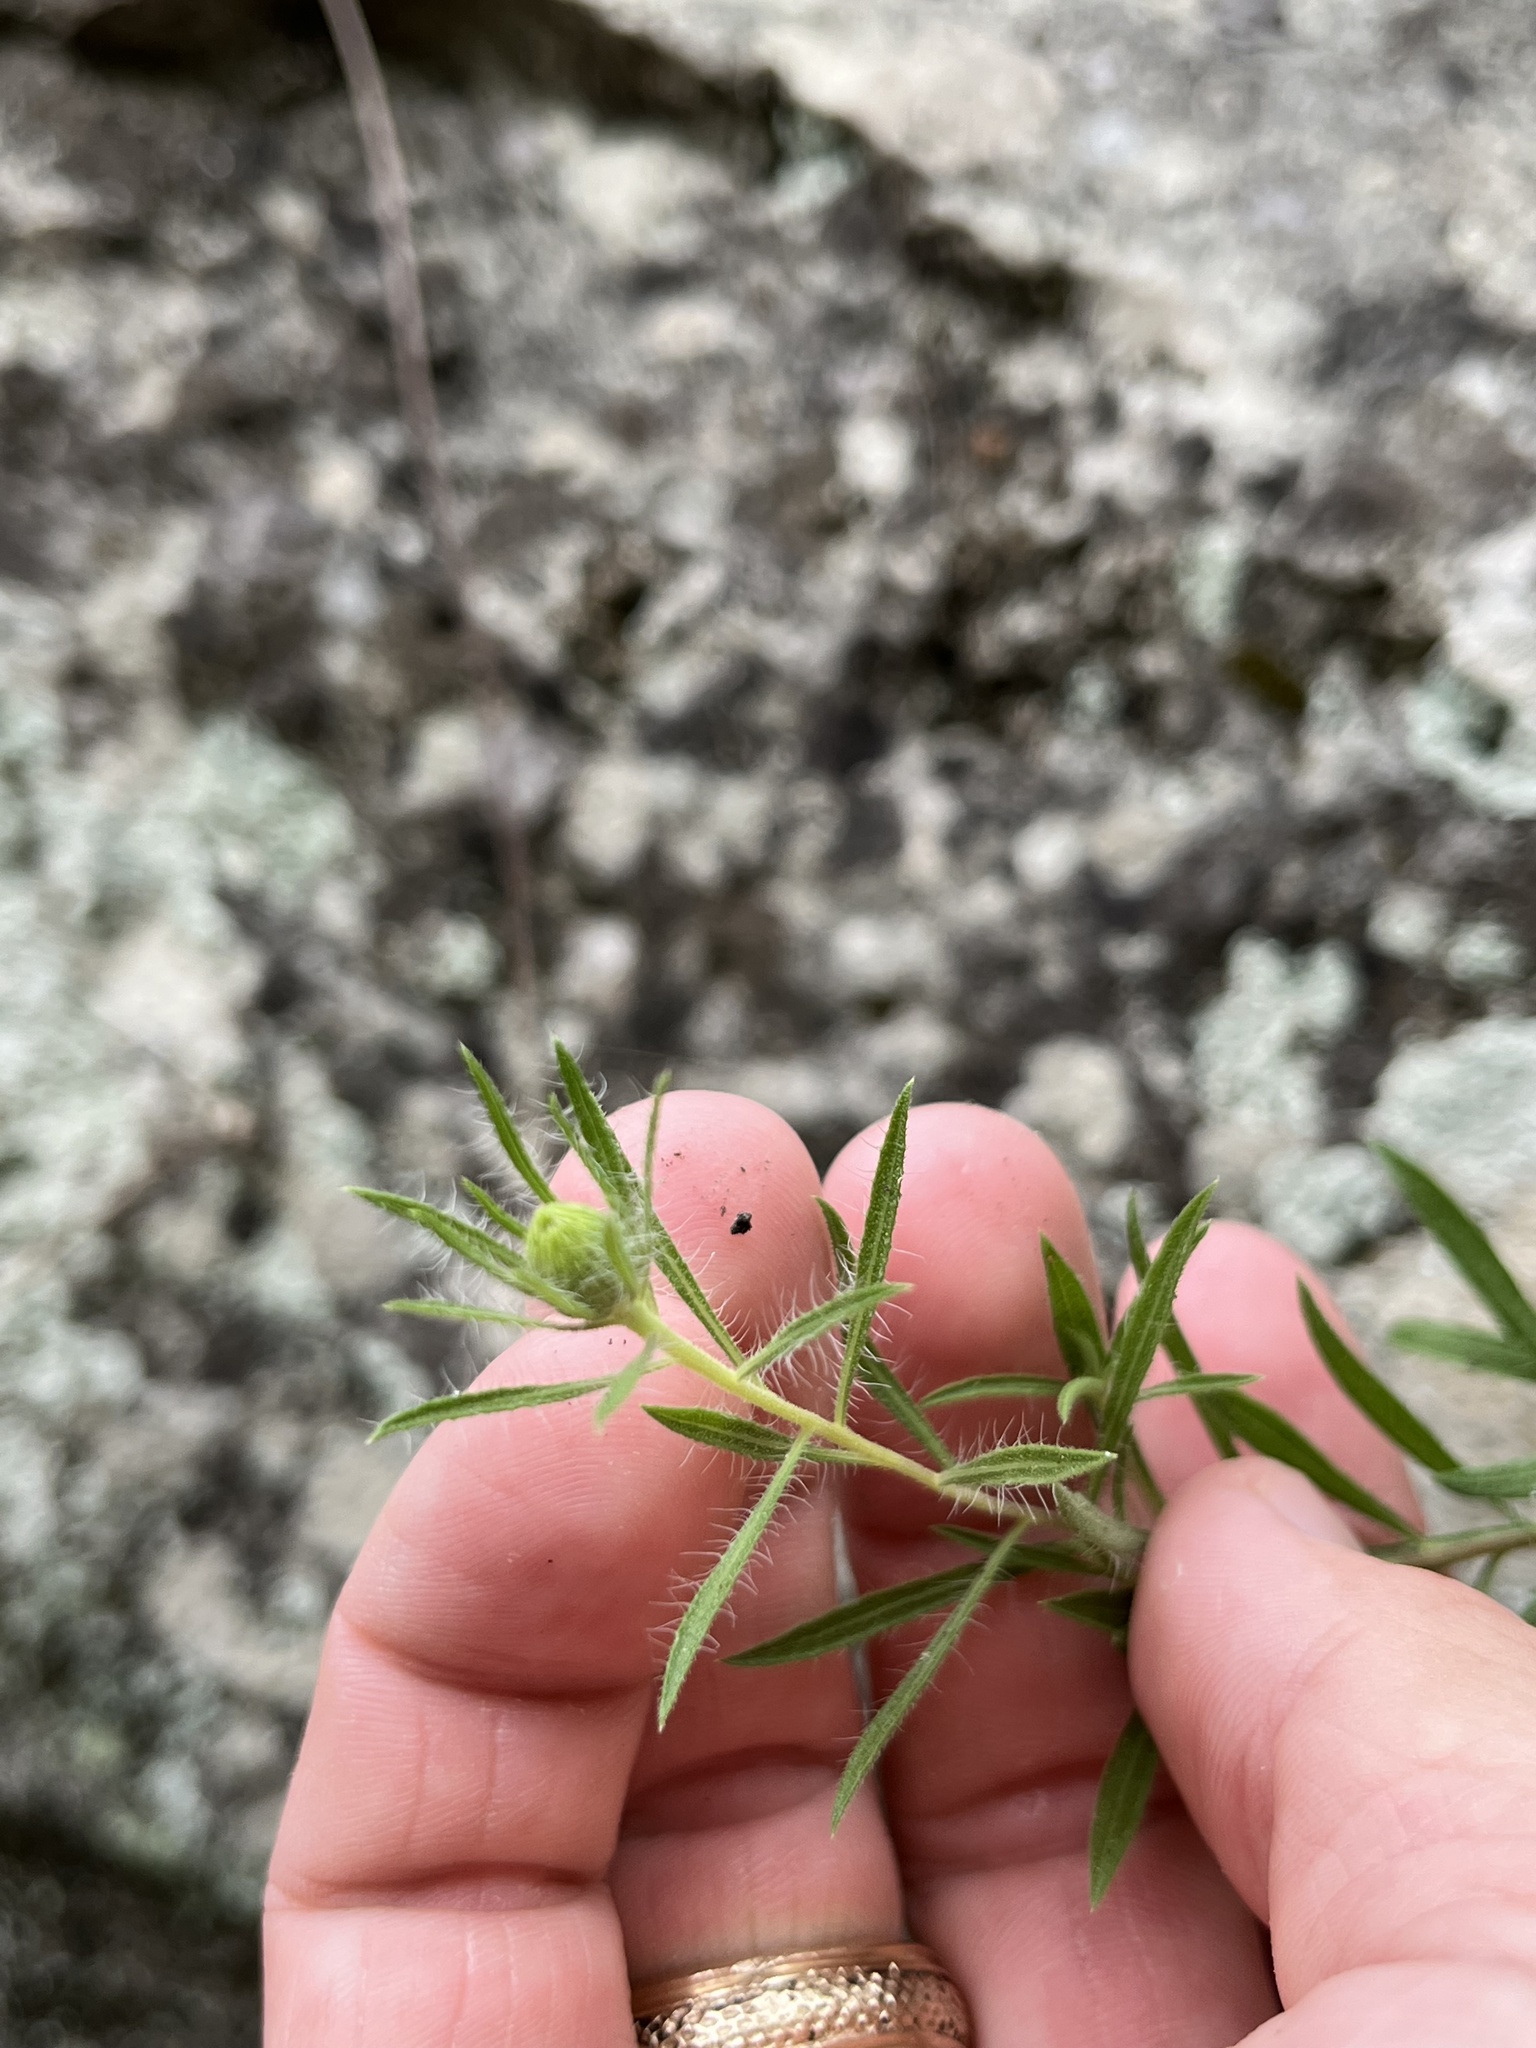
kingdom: Plantae
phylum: Tracheophyta
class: Magnoliopsida
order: Asterales
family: Asteraceae
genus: Heterotheca
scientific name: Heterotheca stenophylla
